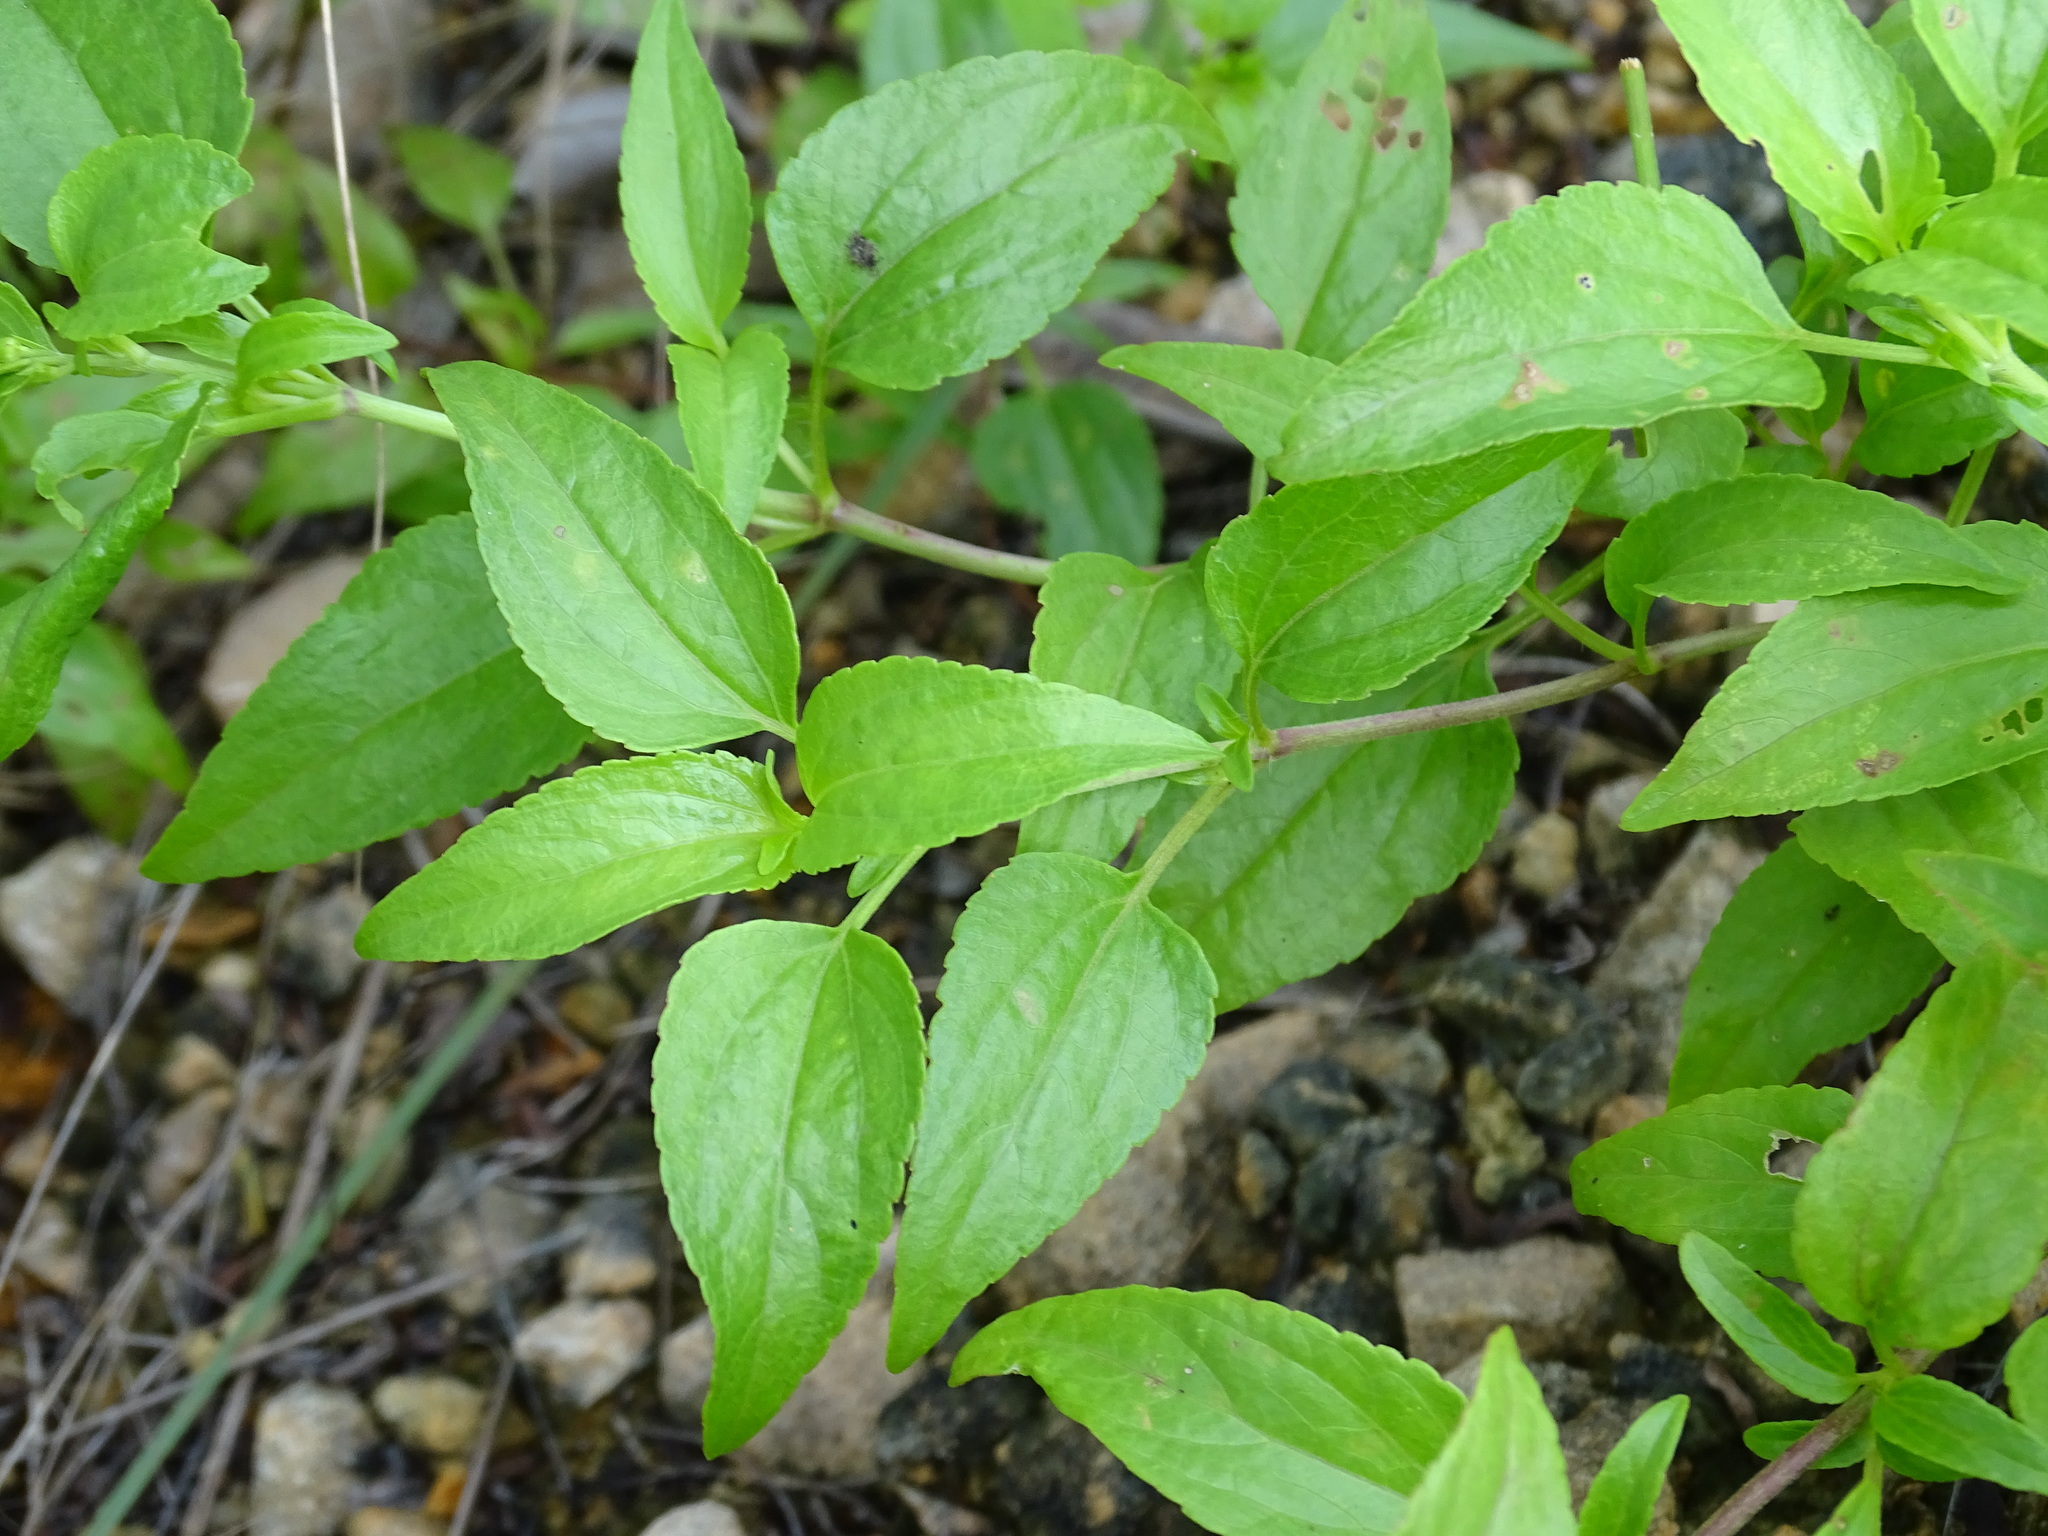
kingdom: Plantae
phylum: Tracheophyta
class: Magnoliopsida
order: Asterales
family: Asteraceae
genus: Ageratum
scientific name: Ageratum gaumeri
